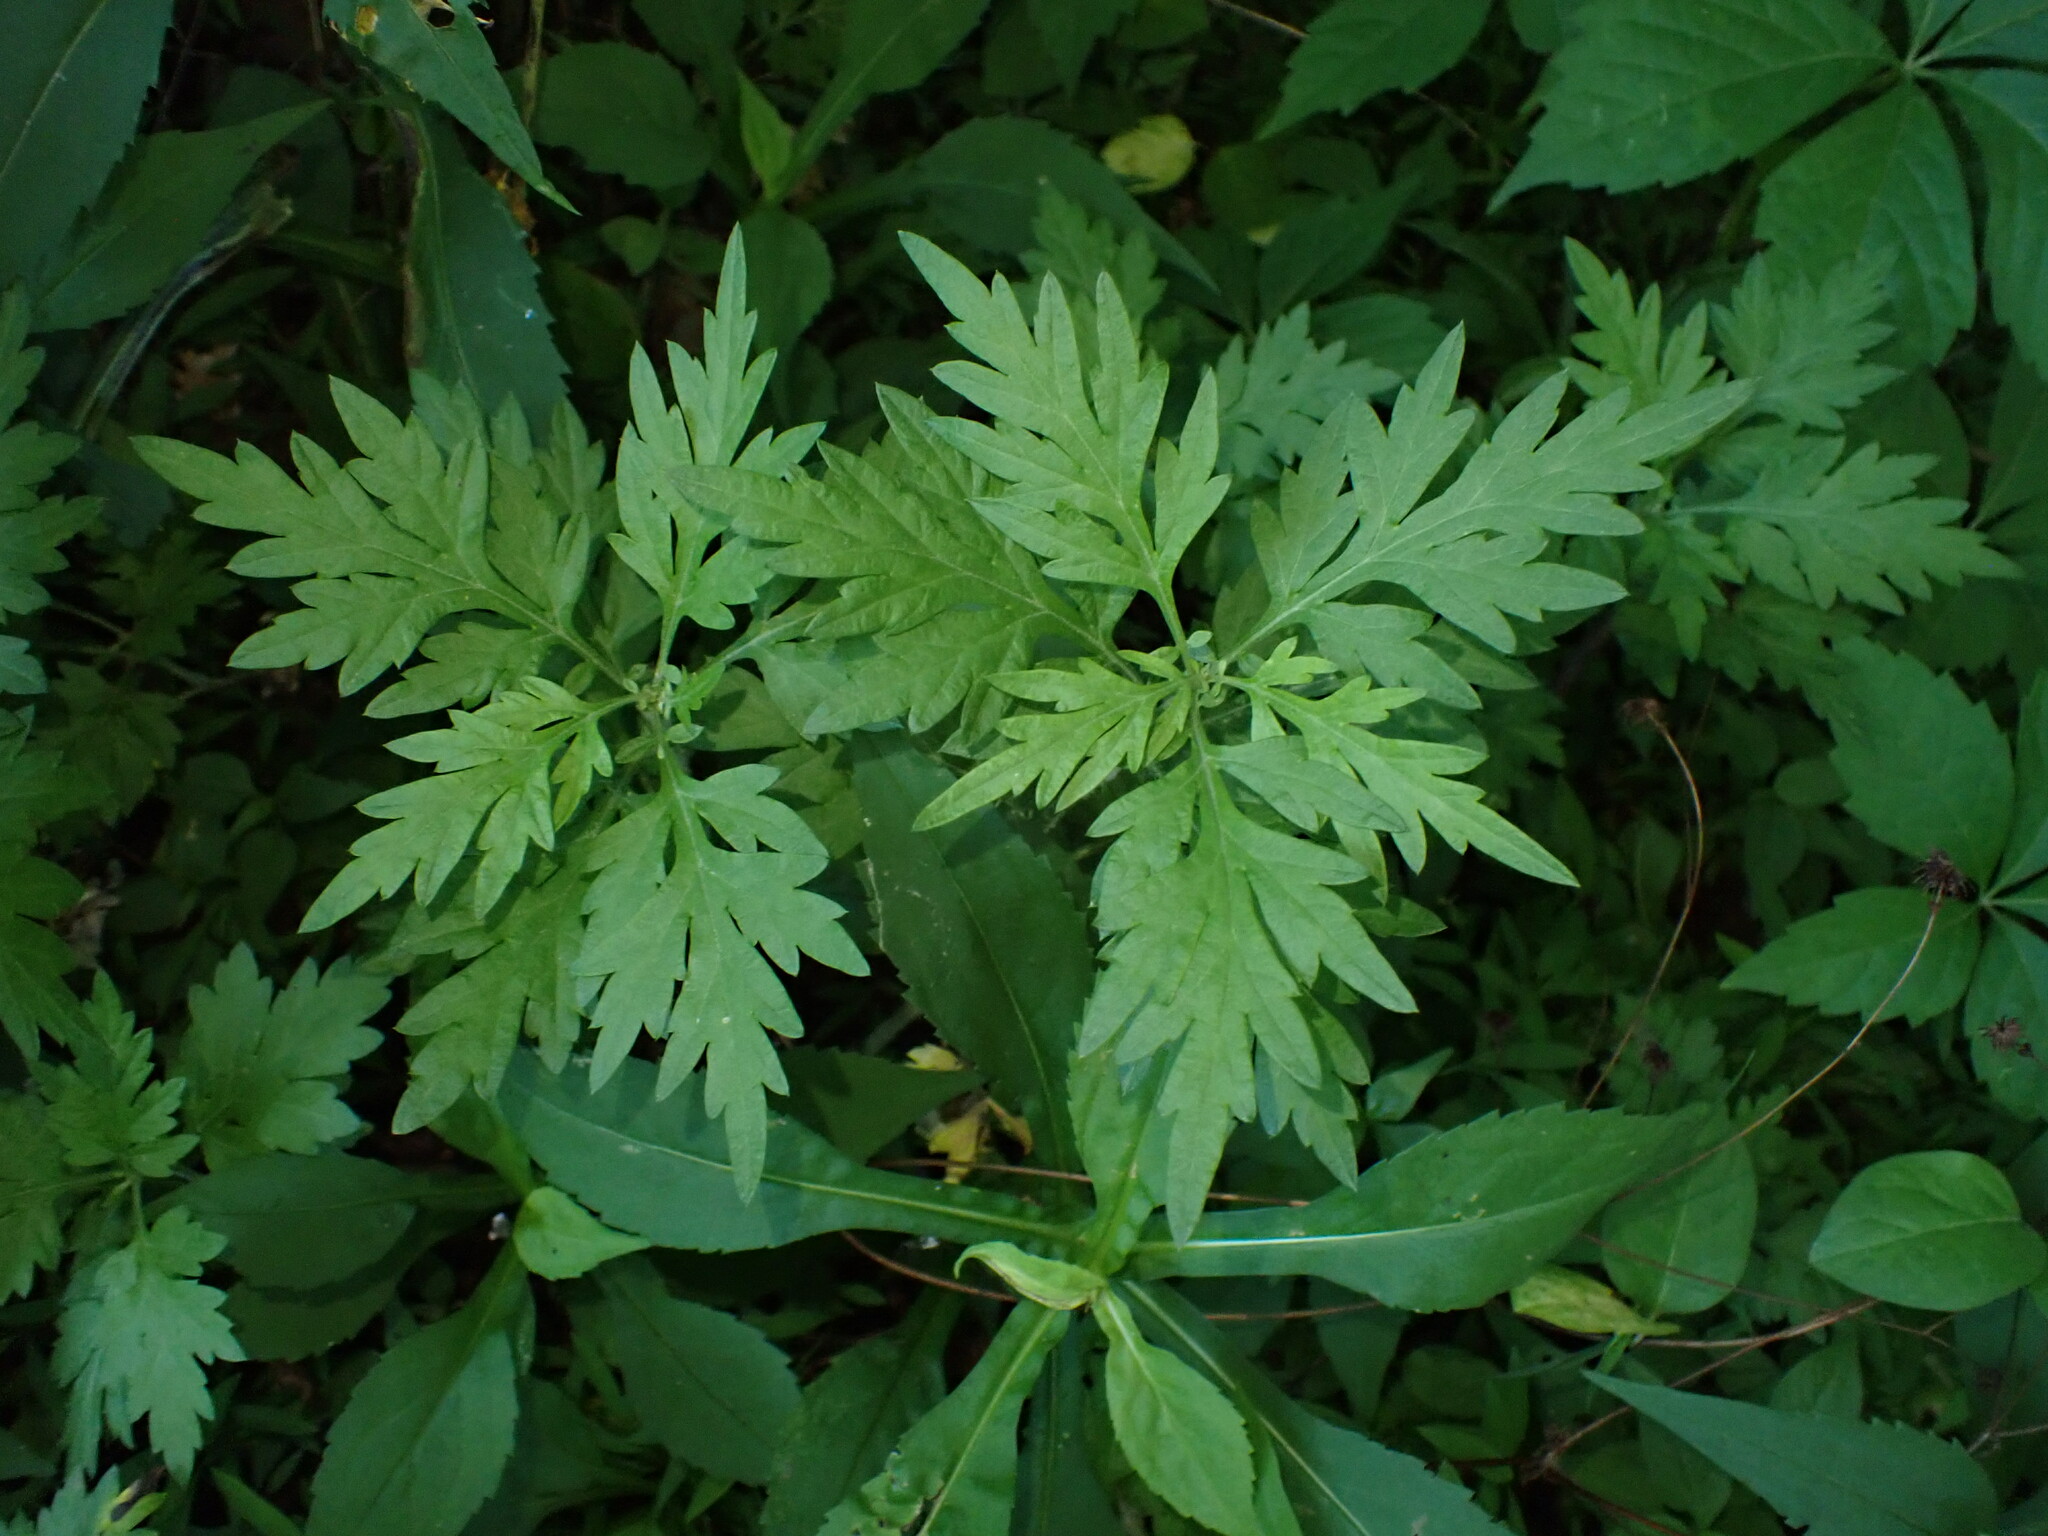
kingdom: Plantae
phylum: Tracheophyta
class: Magnoliopsida
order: Asterales
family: Asteraceae
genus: Artemisia
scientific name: Artemisia vulgaris
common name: Mugwort
